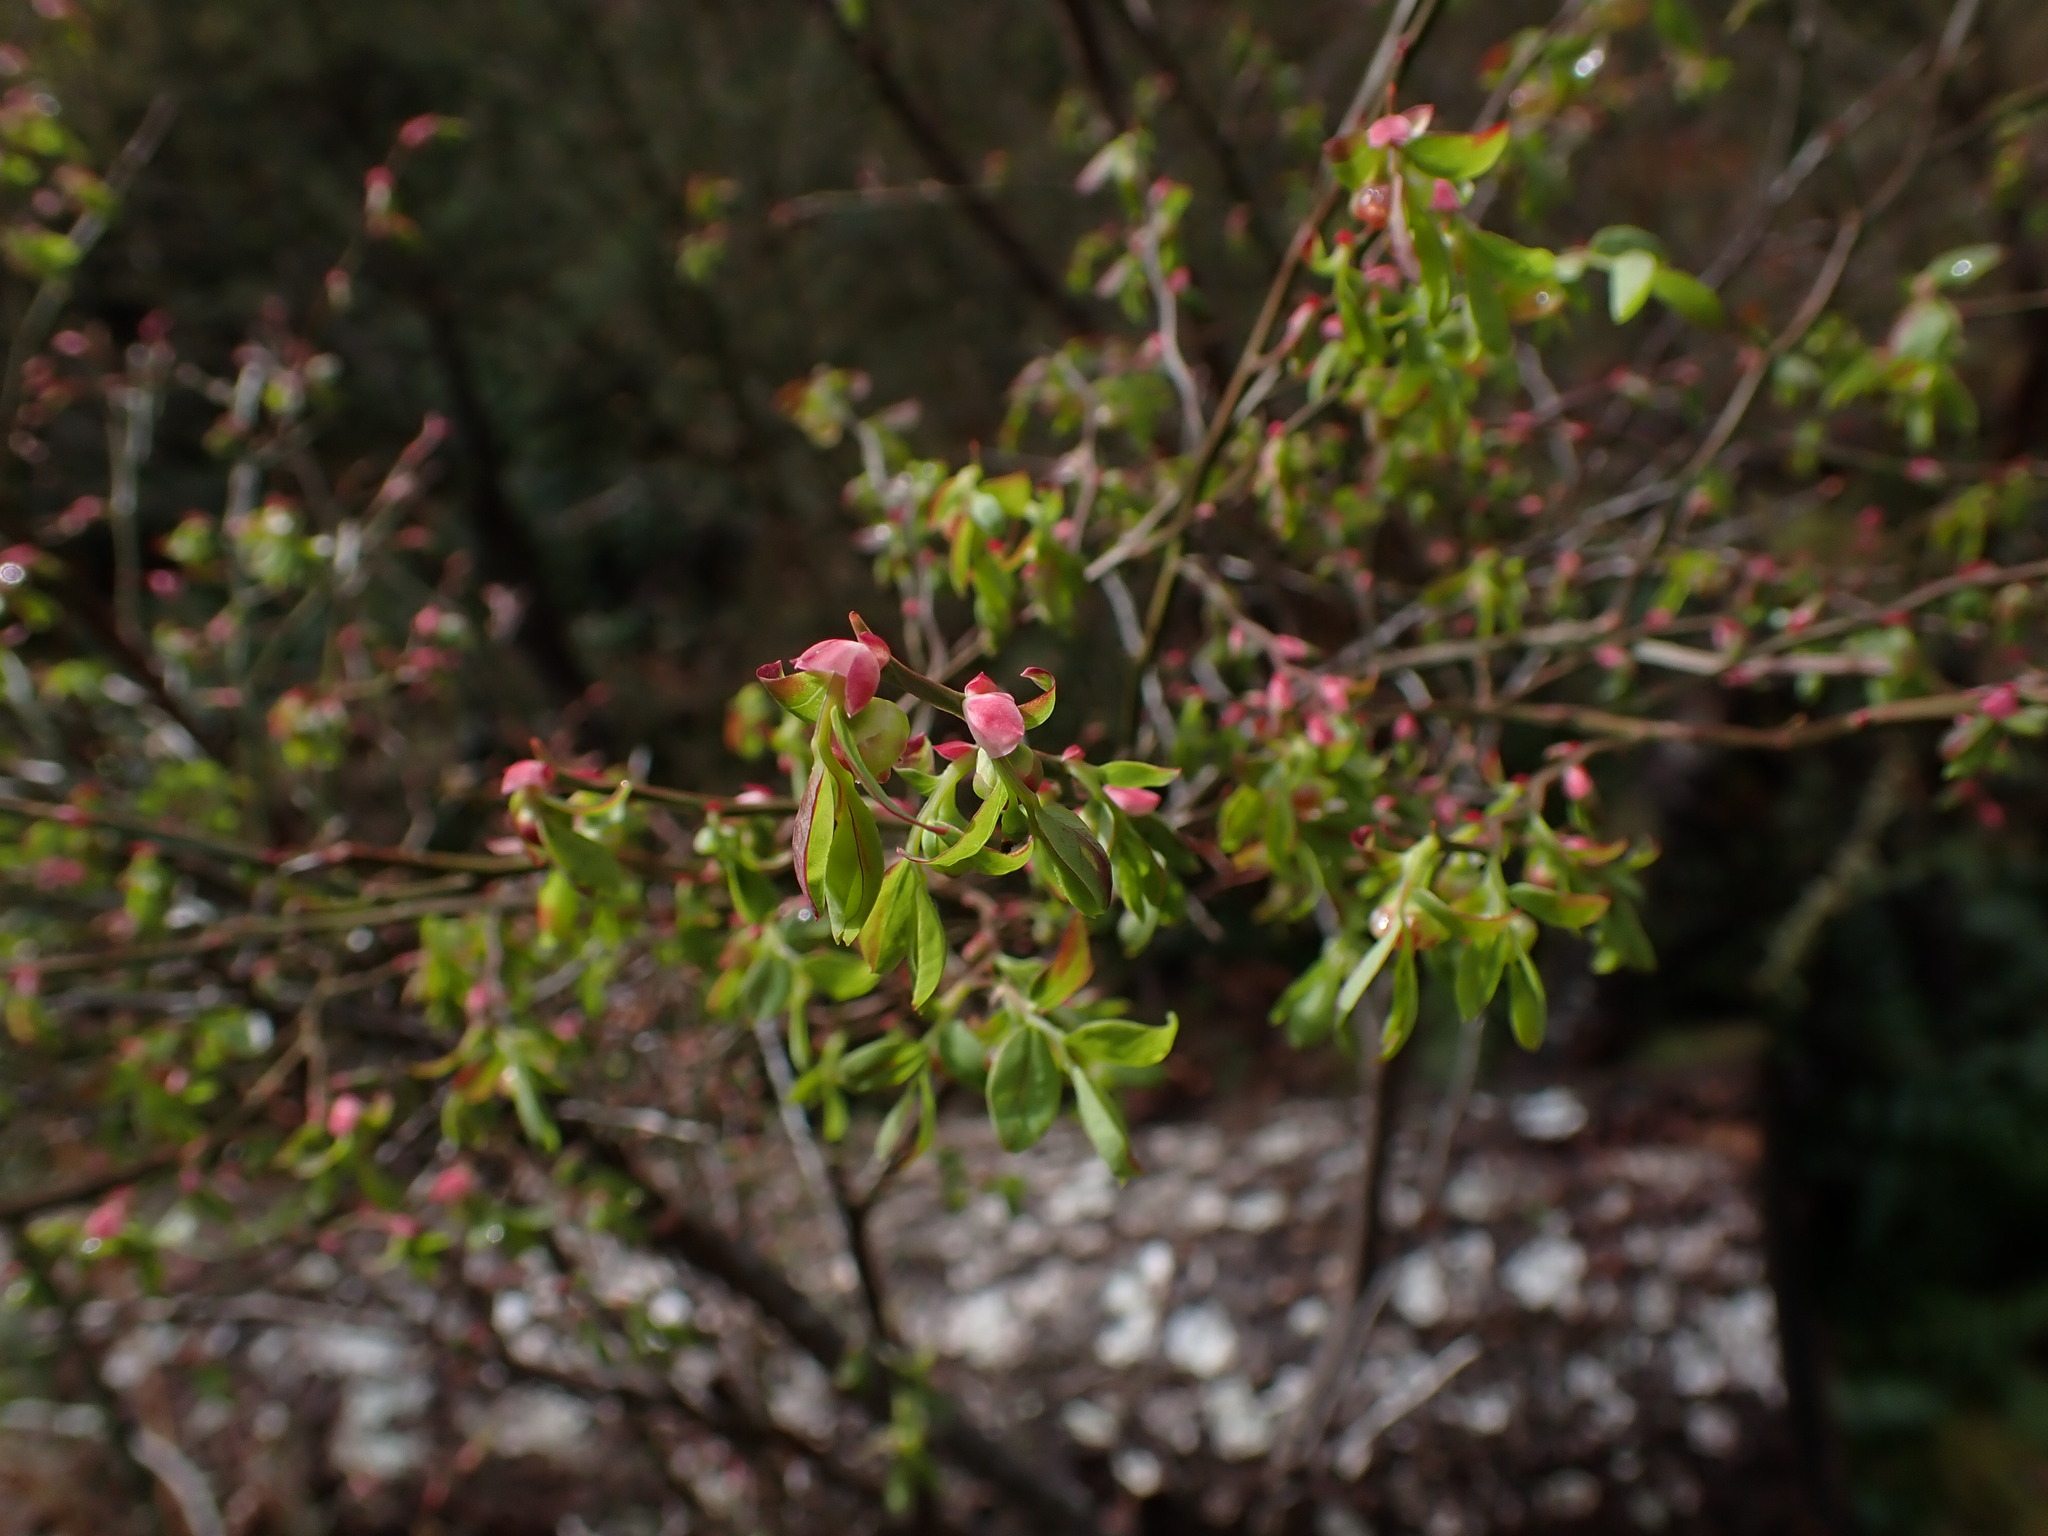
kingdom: Plantae
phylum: Tracheophyta
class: Magnoliopsida
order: Ericales
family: Ericaceae
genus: Vaccinium
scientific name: Vaccinium parvifolium
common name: Red-huckleberry
